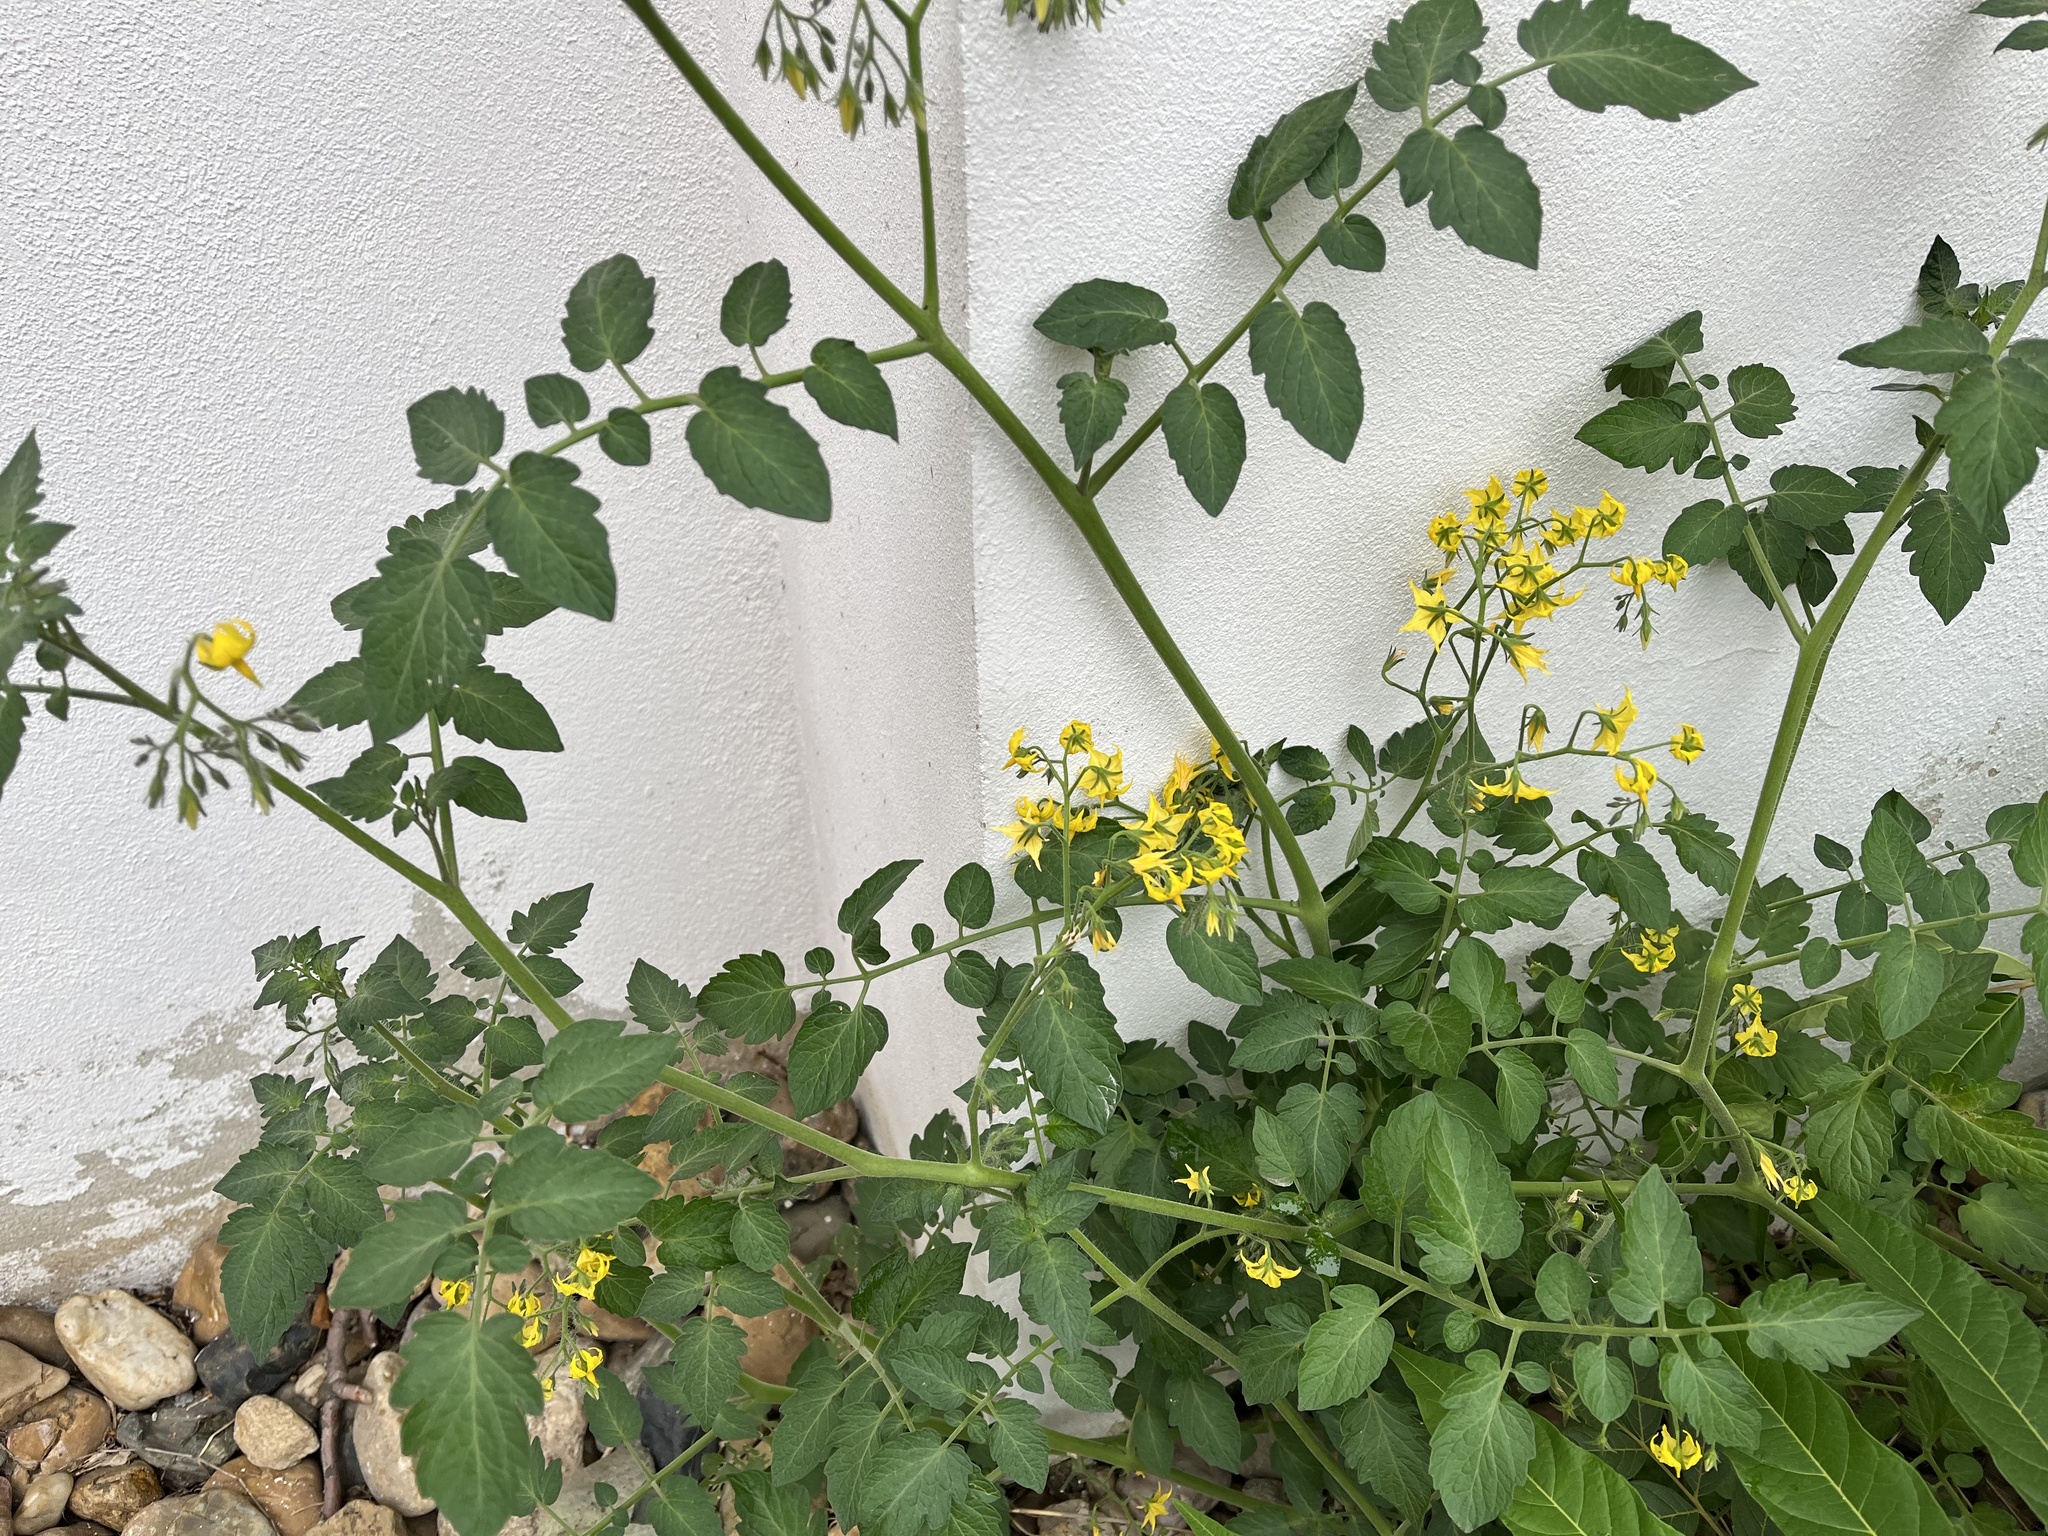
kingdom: Plantae
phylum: Tracheophyta
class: Magnoliopsida
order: Solanales
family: Solanaceae
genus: Solanum
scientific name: Solanum lycopersicum
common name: Garden tomato
